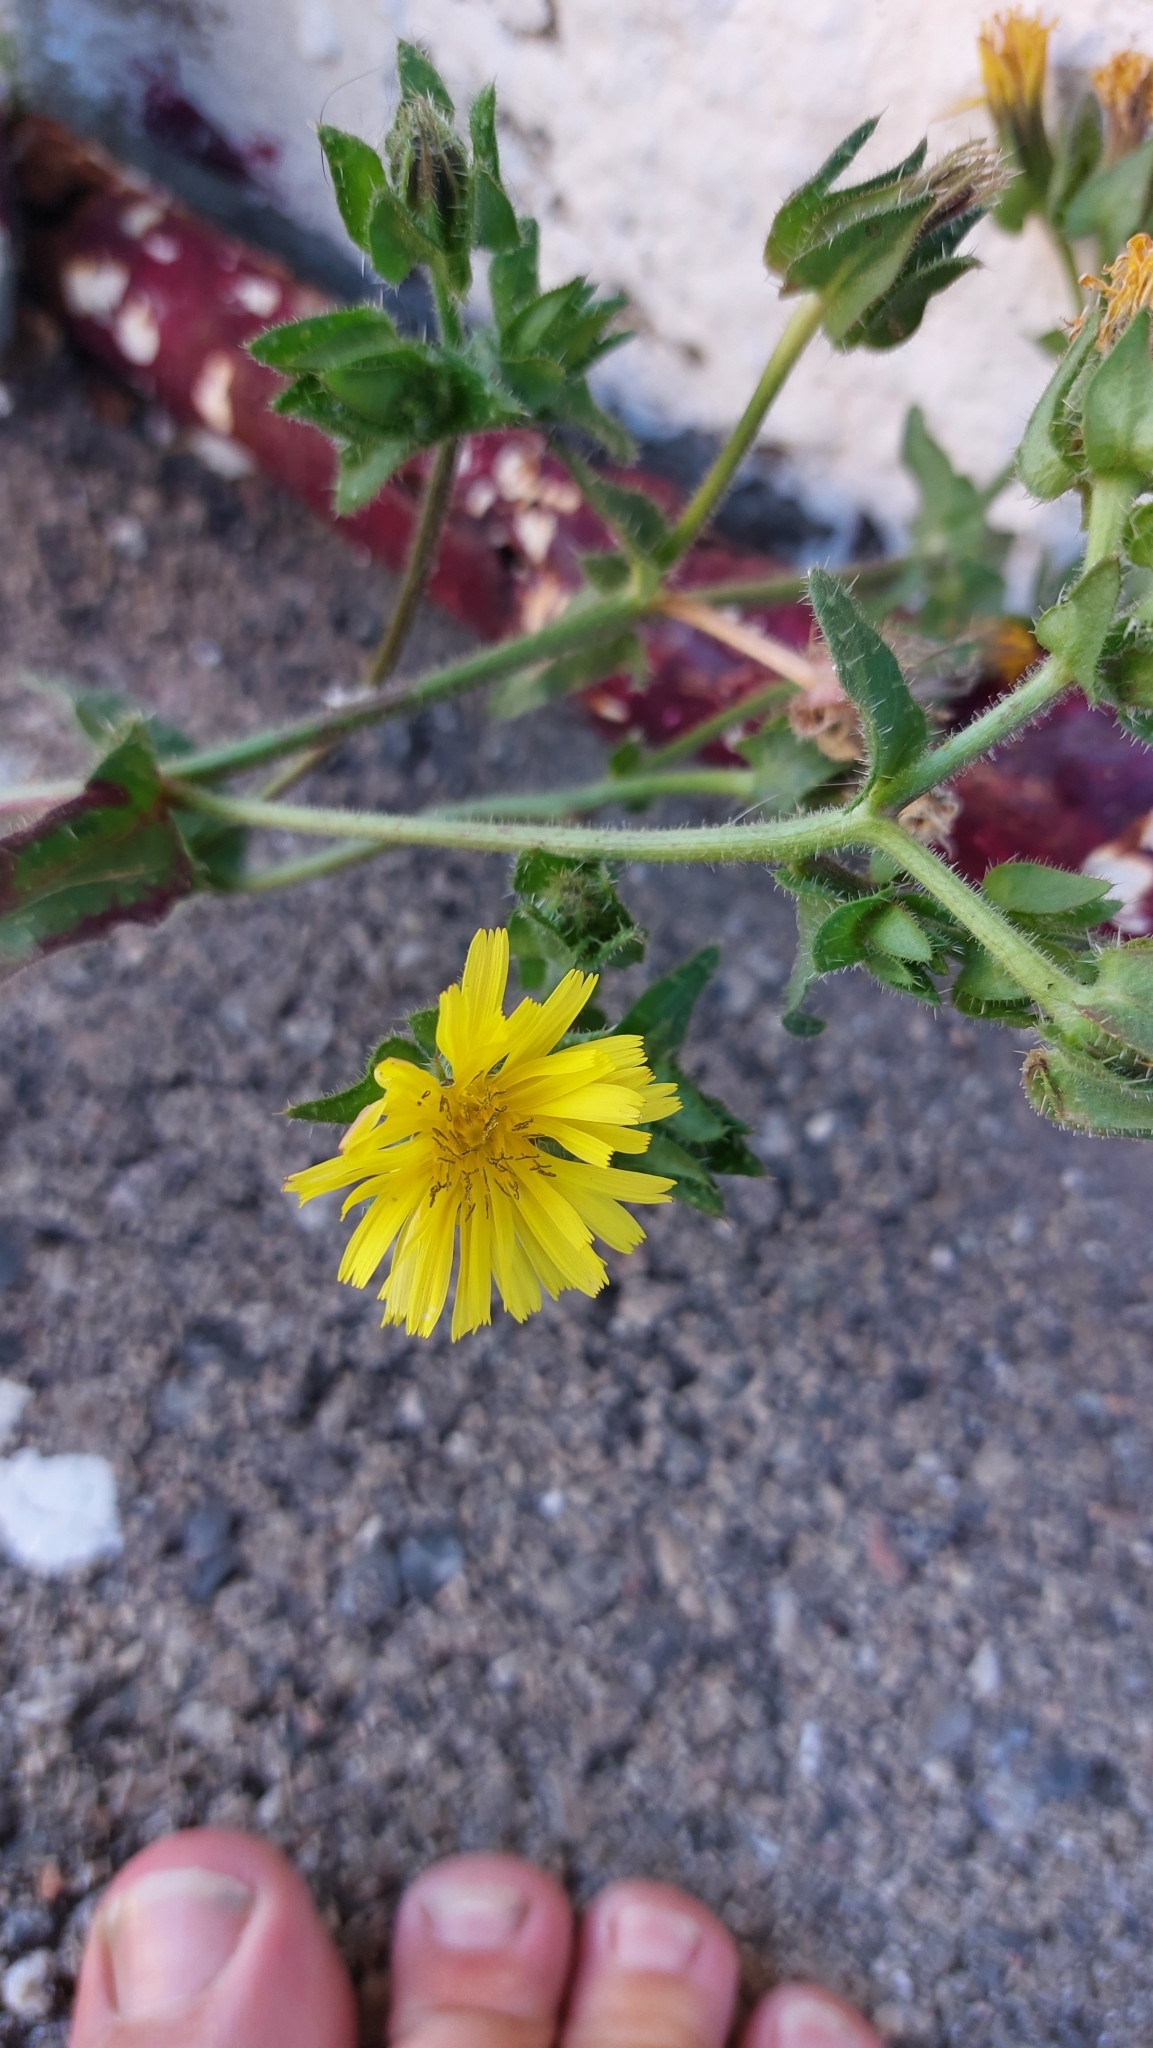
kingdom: Plantae
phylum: Tracheophyta
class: Magnoliopsida
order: Asterales
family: Asteraceae
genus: Helminthotheca
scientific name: Helminthotheca echioides
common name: Ox-tongue
